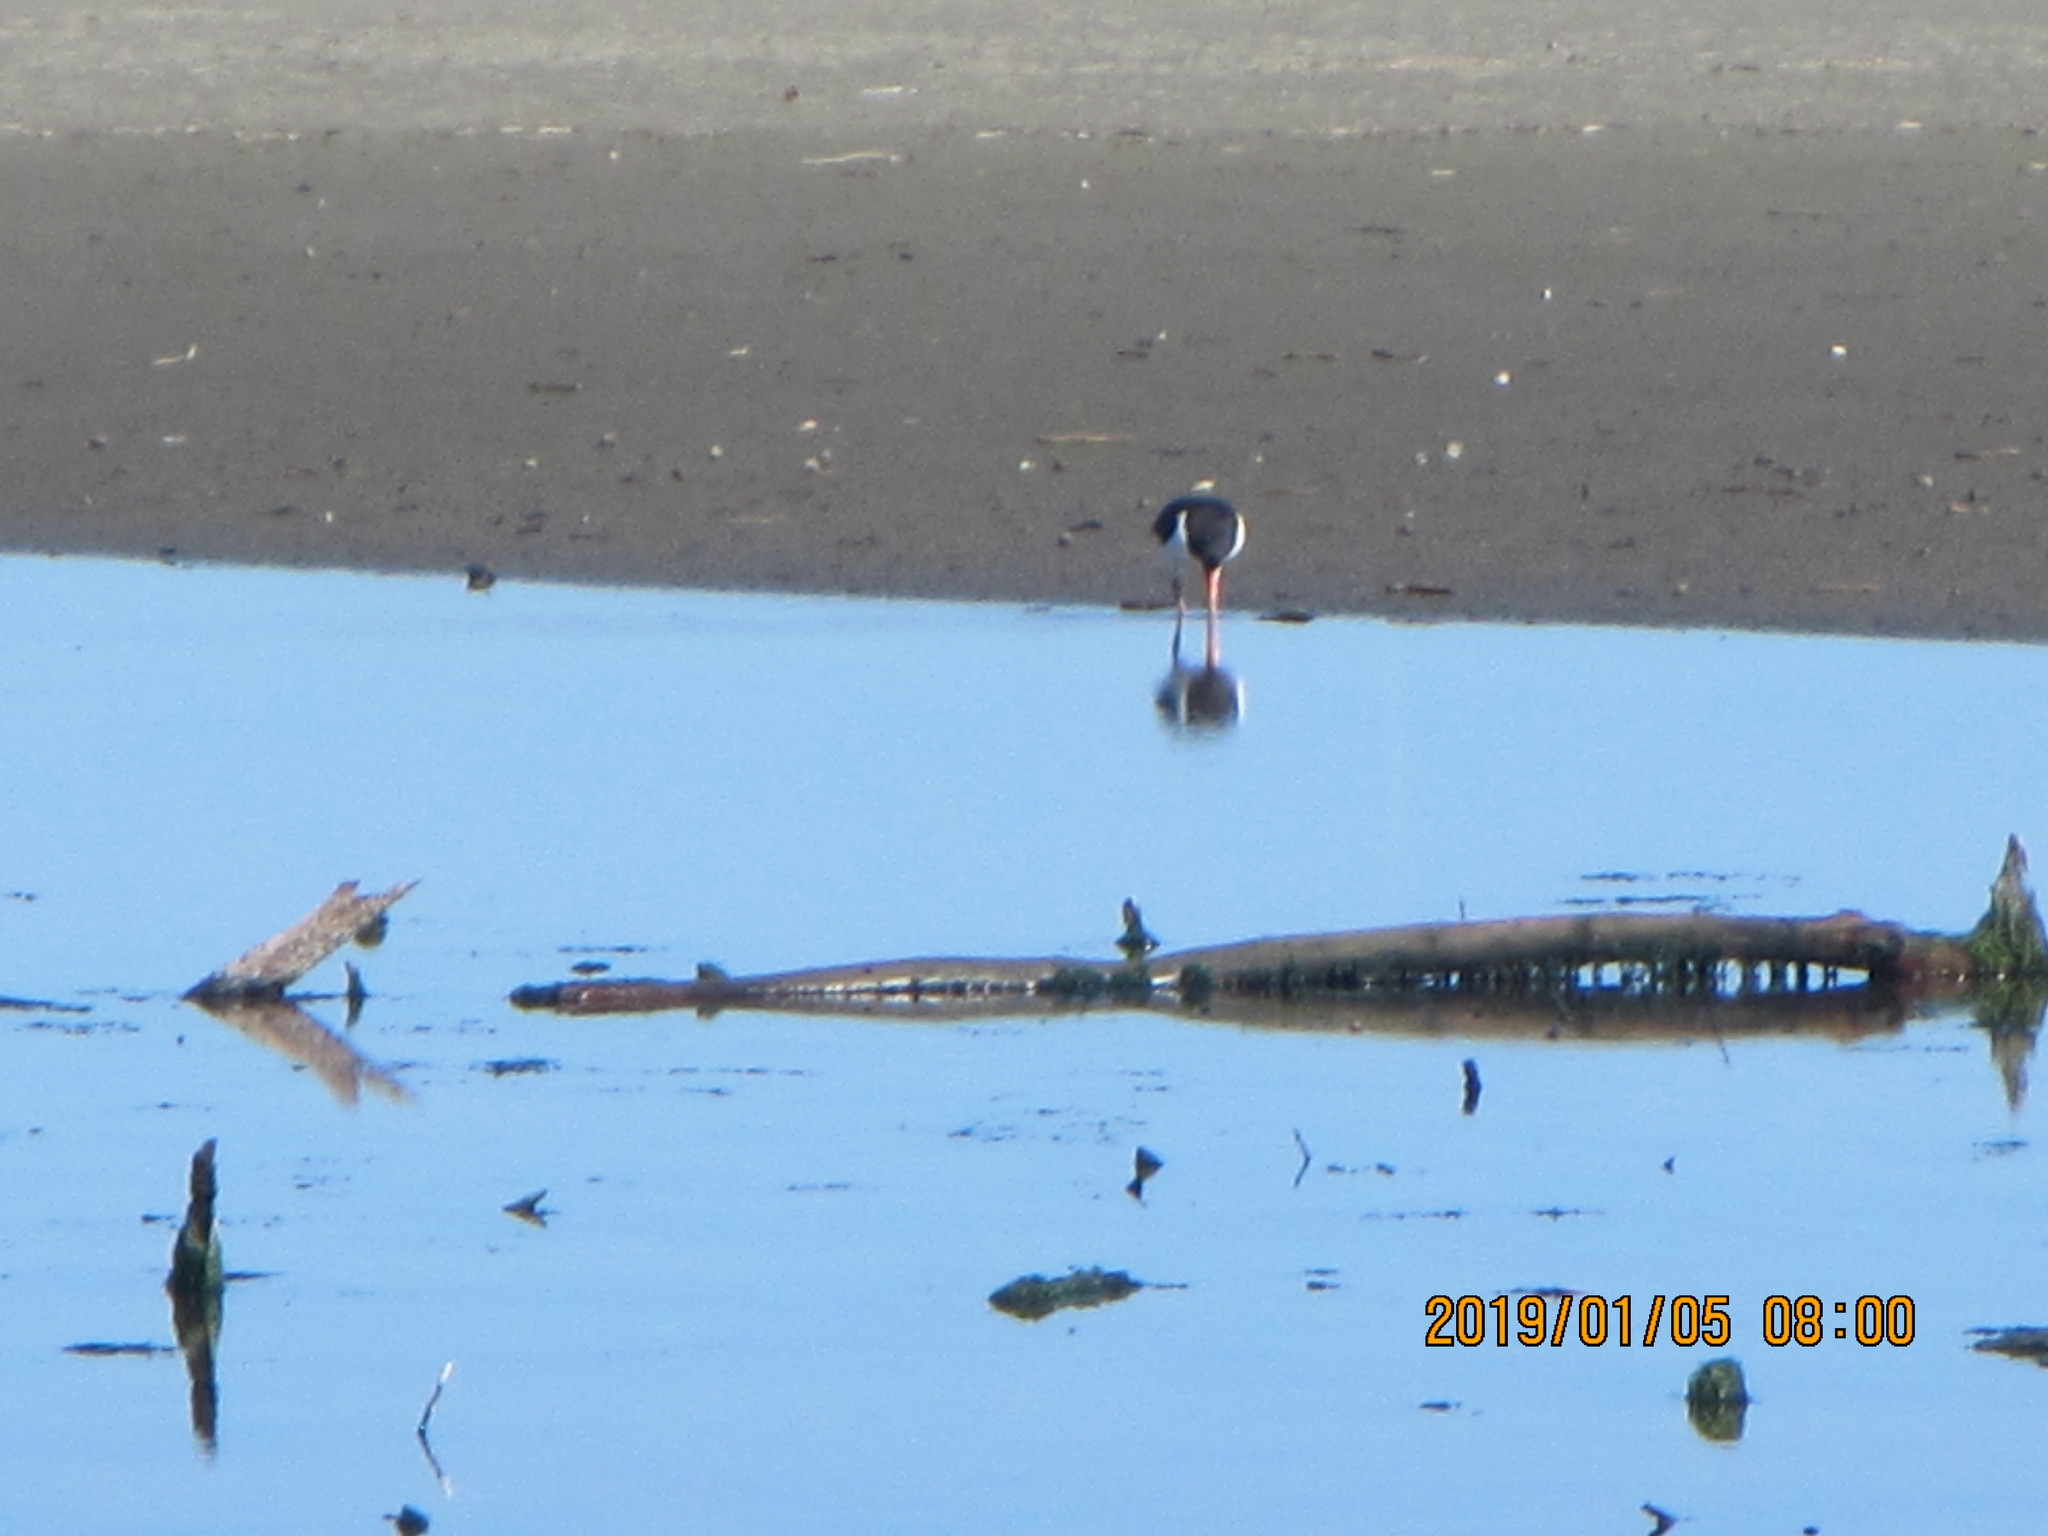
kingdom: Animalia
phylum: Chordata
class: Aves
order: Charadriiformes
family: Haematopodidae
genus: Haematopus
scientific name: Haematopus finschi
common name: South island oystercatcher
